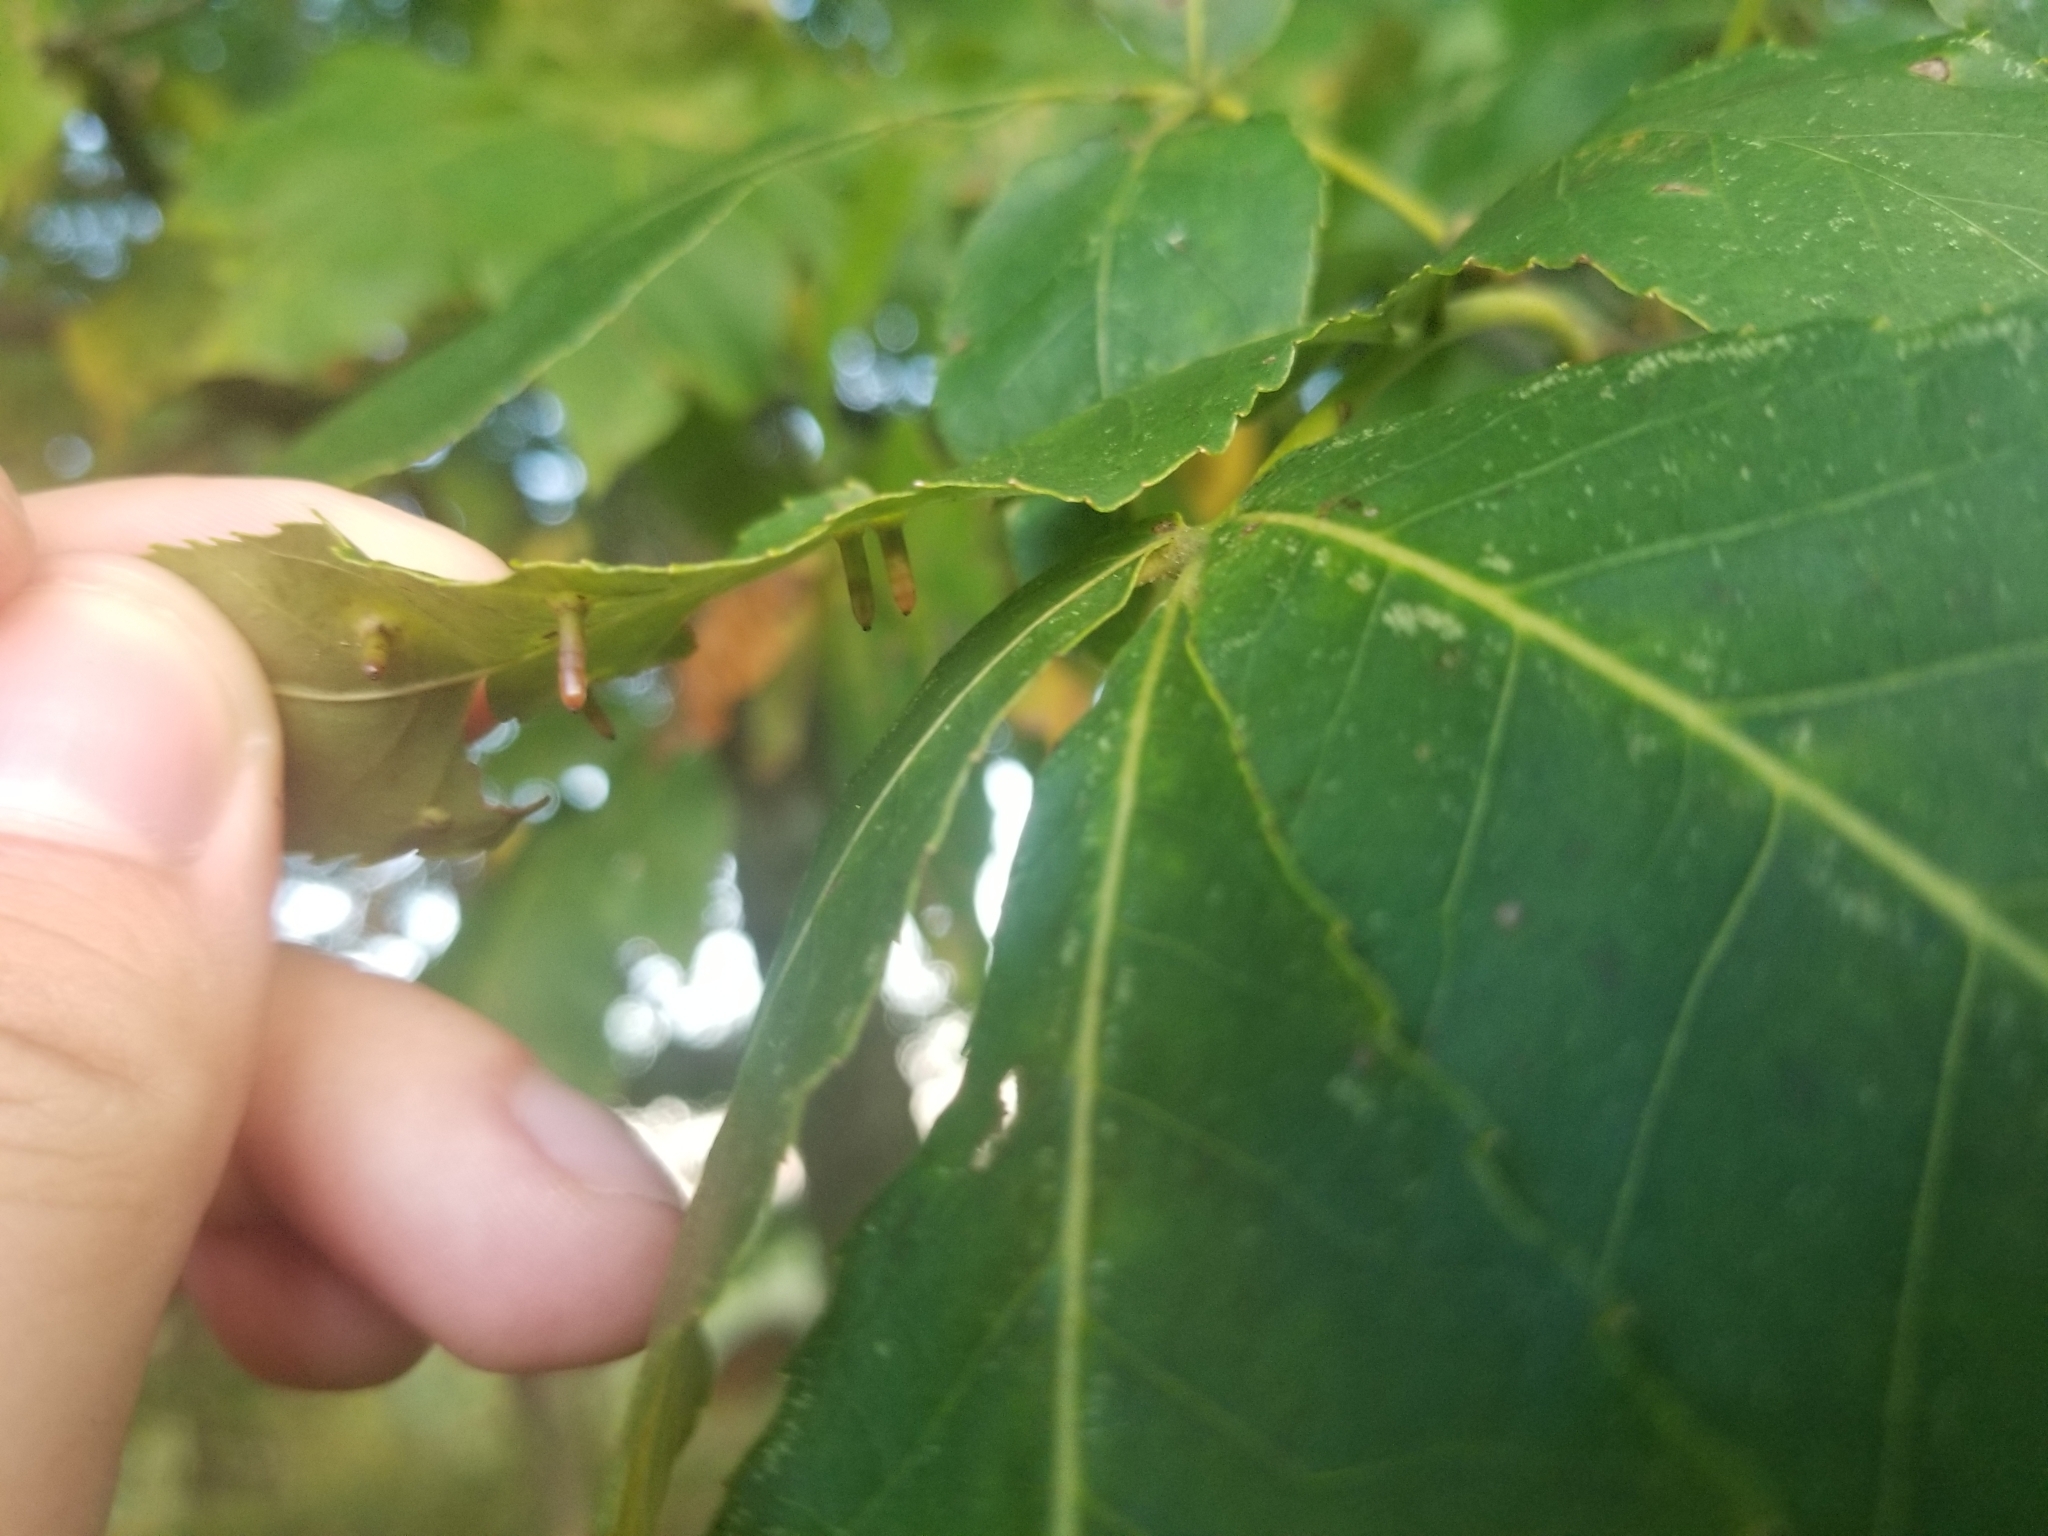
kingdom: Animalia
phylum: Arthropoda
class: Insecta
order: Diptera
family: Cecidomyiidae
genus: Caryomyia
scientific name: Caryomyia tubicola
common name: Hickory bullet gall midge
